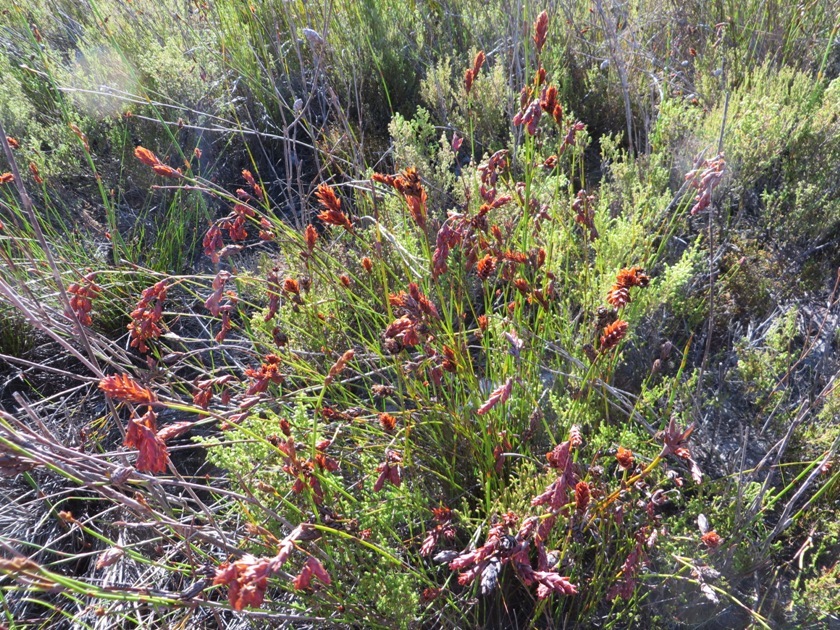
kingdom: Plantae
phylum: Tracheophyta
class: Liliopsida
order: Poales
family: Restionaceae
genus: Restio
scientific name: Restio bifarius
